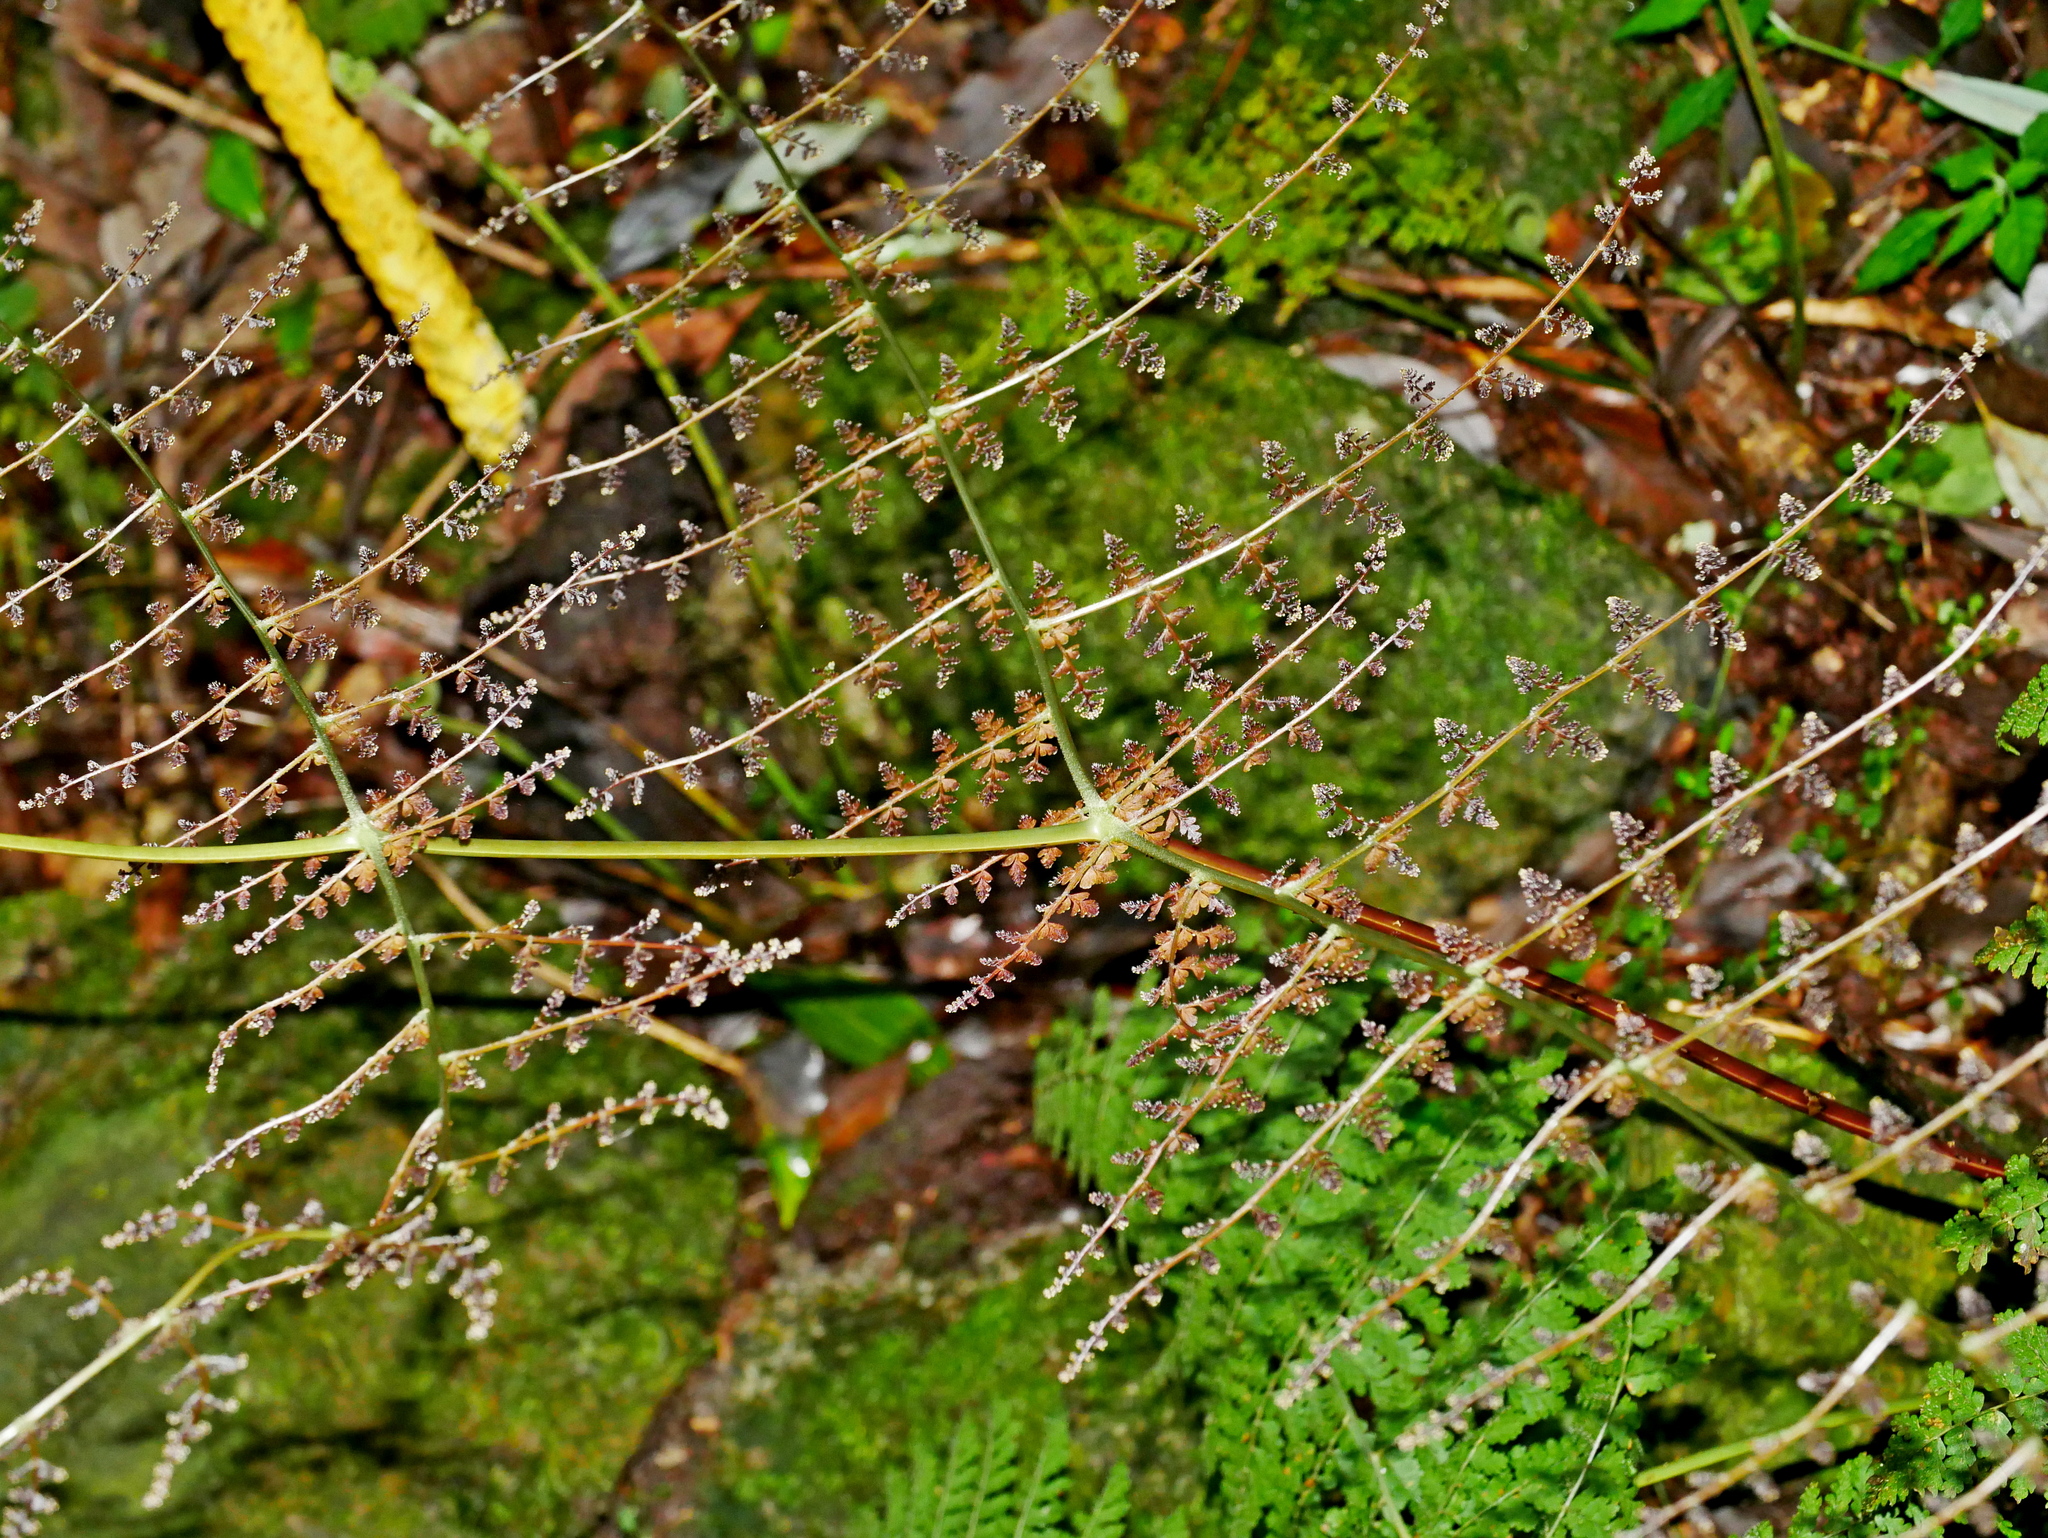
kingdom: Plantae
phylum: Tracheophyta
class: Polypodiopsida
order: Polypodiales
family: Dryopteridaceae
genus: Dryopteris
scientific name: Dryopteris paleolata
